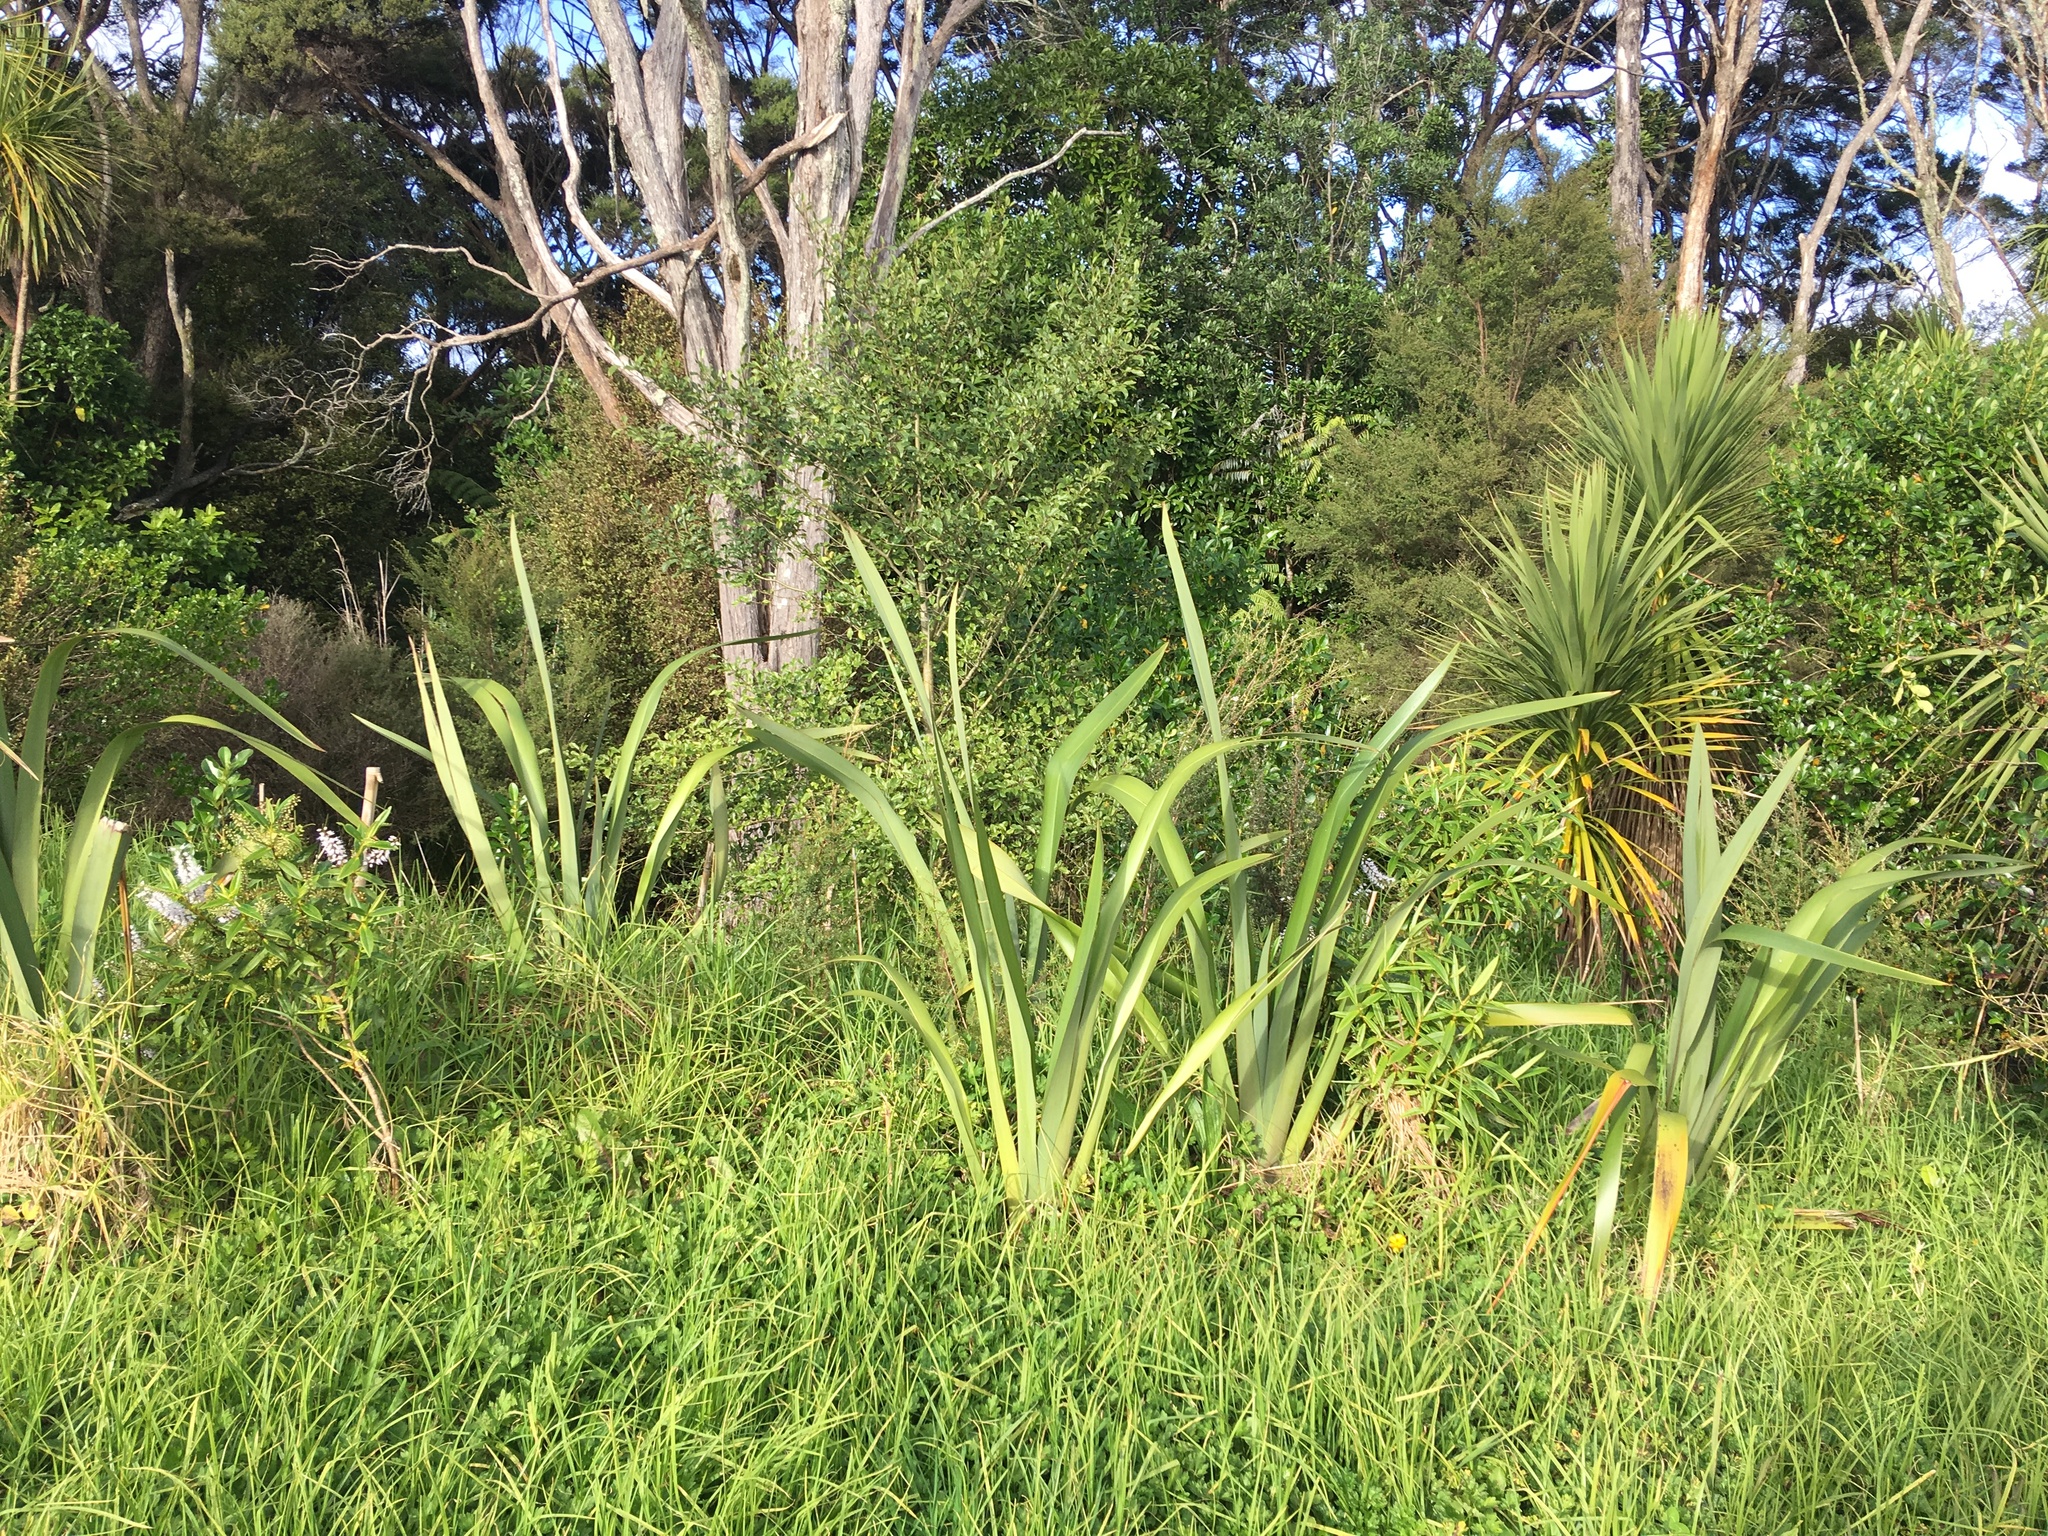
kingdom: Plantae
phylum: Tracheophyta
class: Magnoliopsida
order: Lamiales
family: Plantaginaceae
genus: Veronica
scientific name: Veronica stricta
